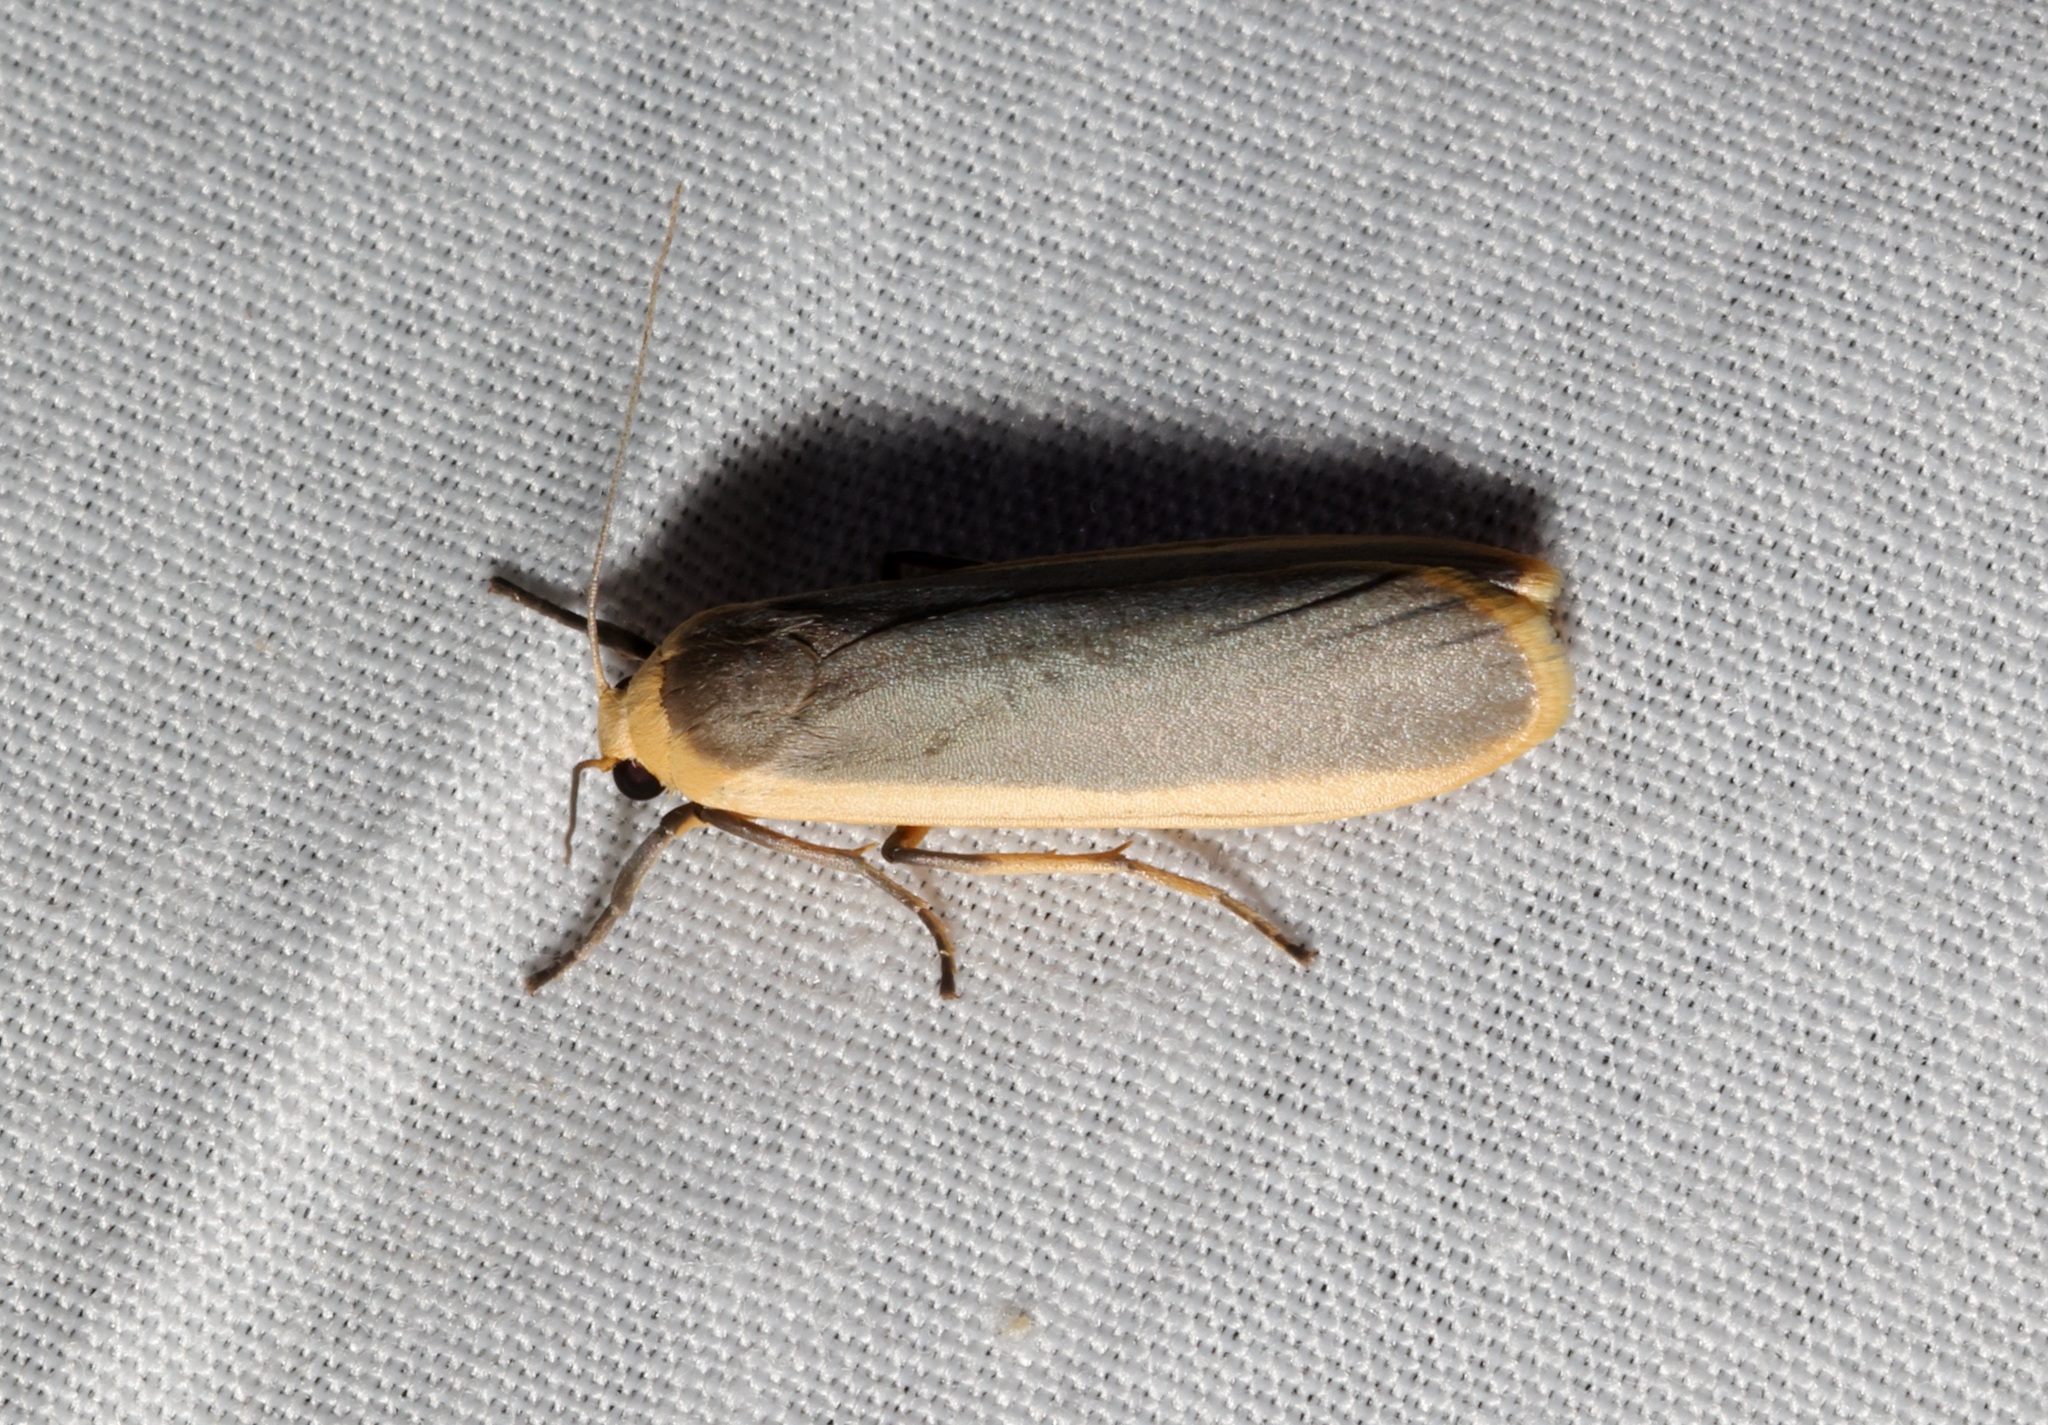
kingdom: Animalia
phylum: Arthropoda
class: Insecta
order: Lepidoptera
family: Erebidae
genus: Brunia
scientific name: Brunia antica
